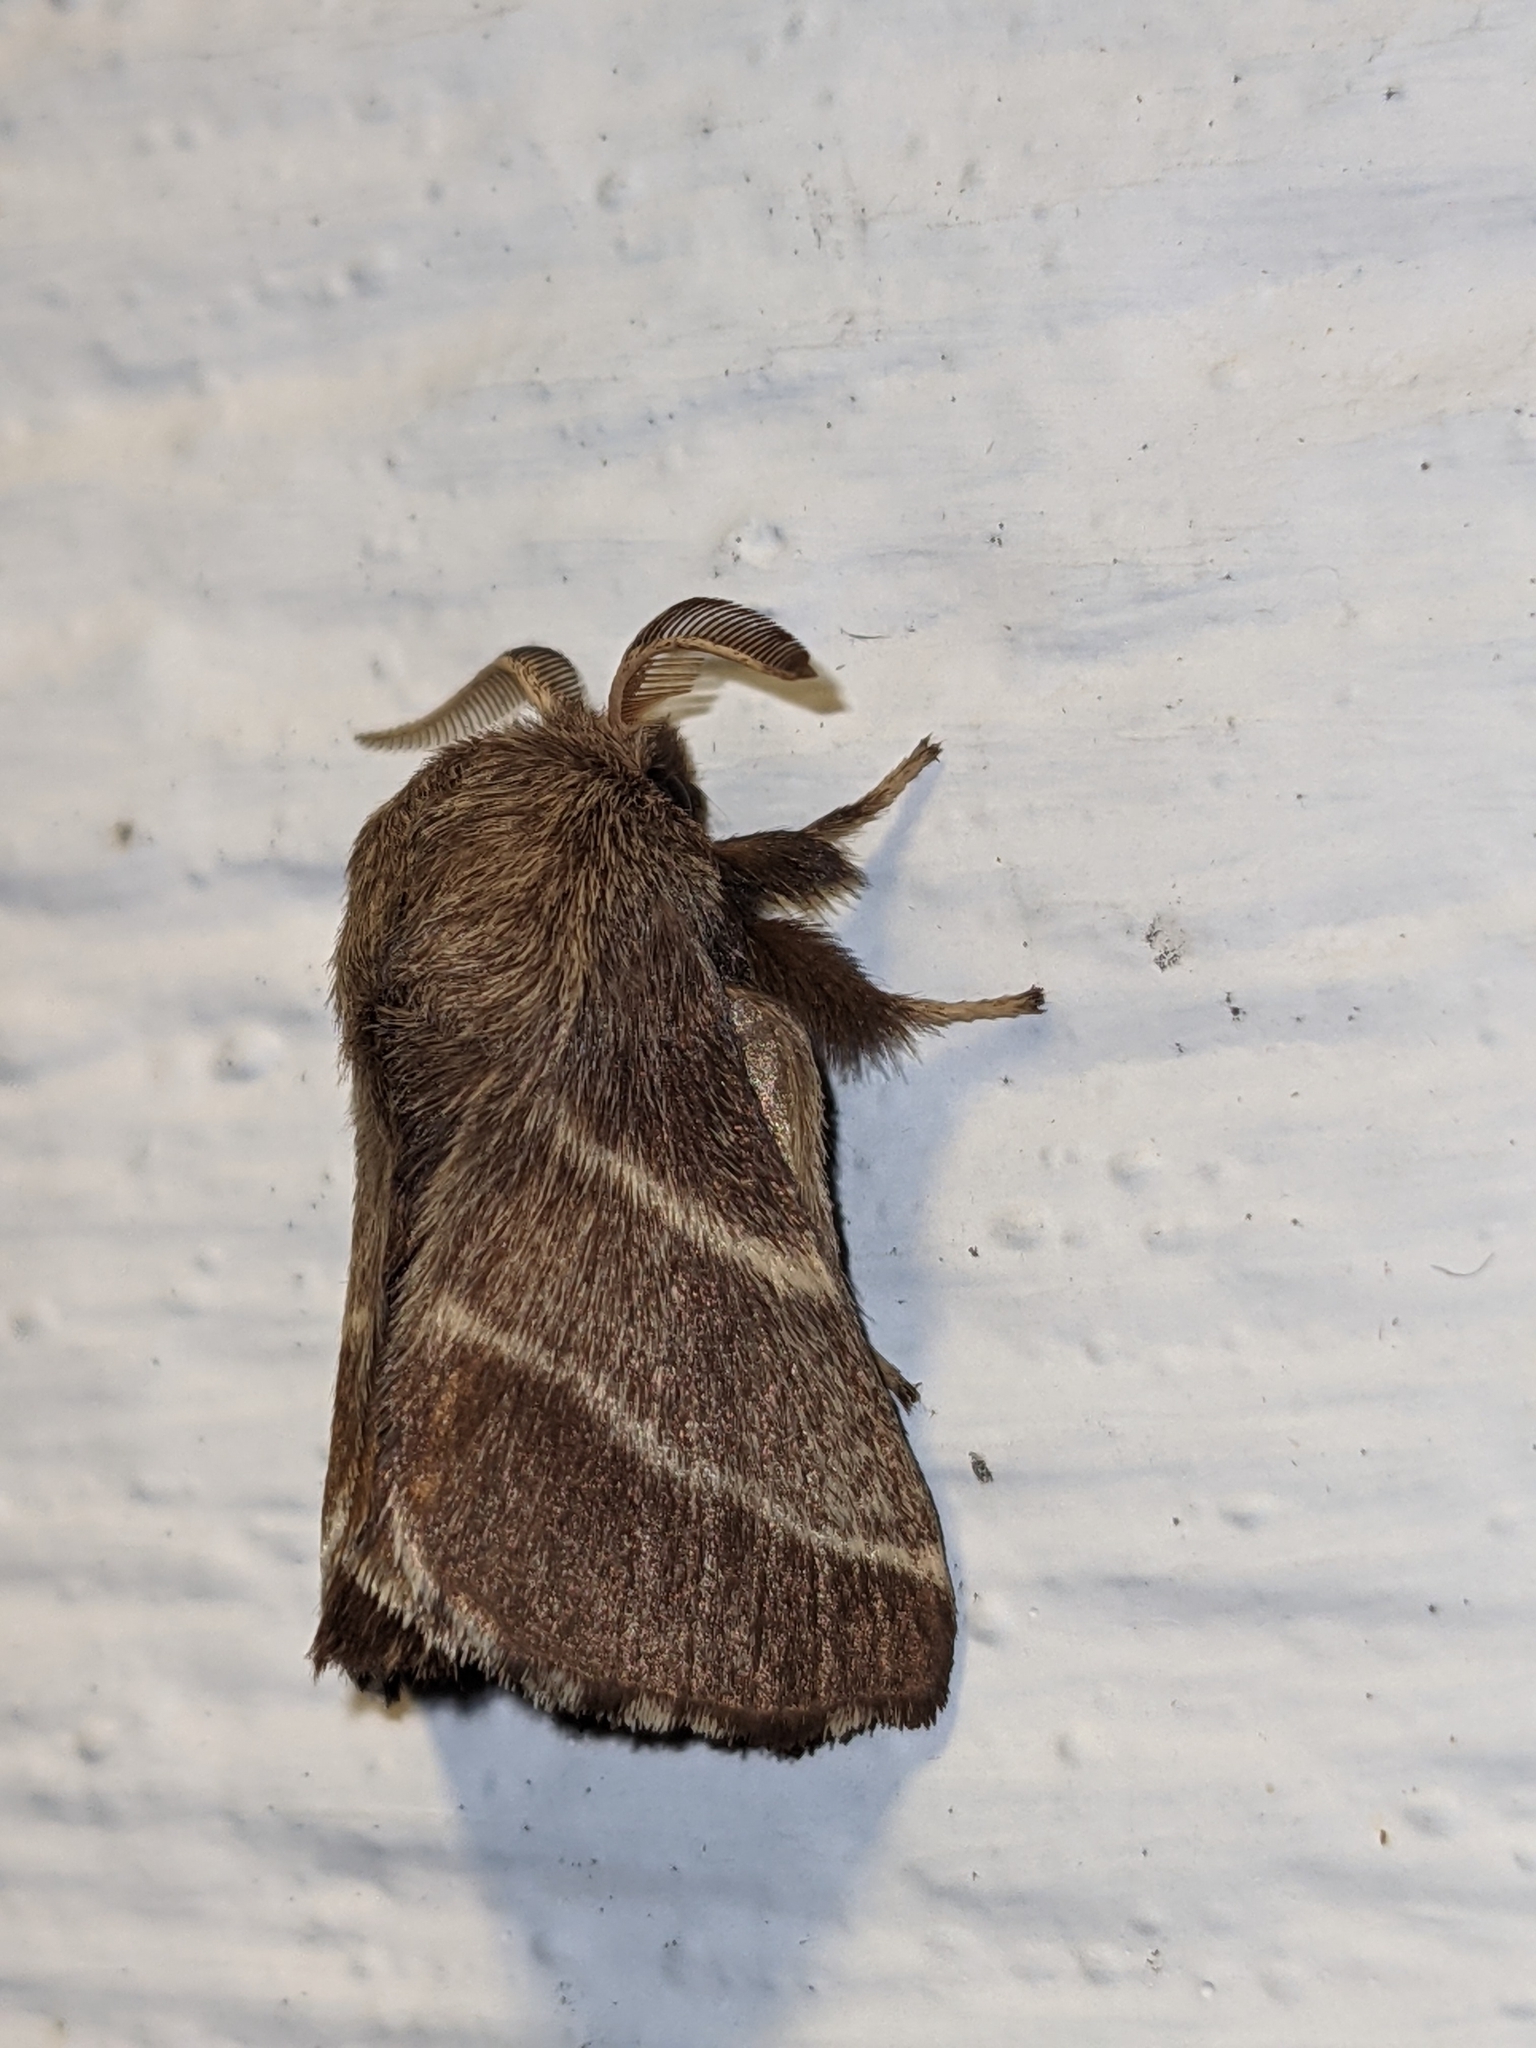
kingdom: Animalia
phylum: Arthropoda
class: Insecta
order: Lepidoptera
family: Lasiocampidae
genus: Malacosoma
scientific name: Malacosoma americana
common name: Eastern tent caterpillar moth
